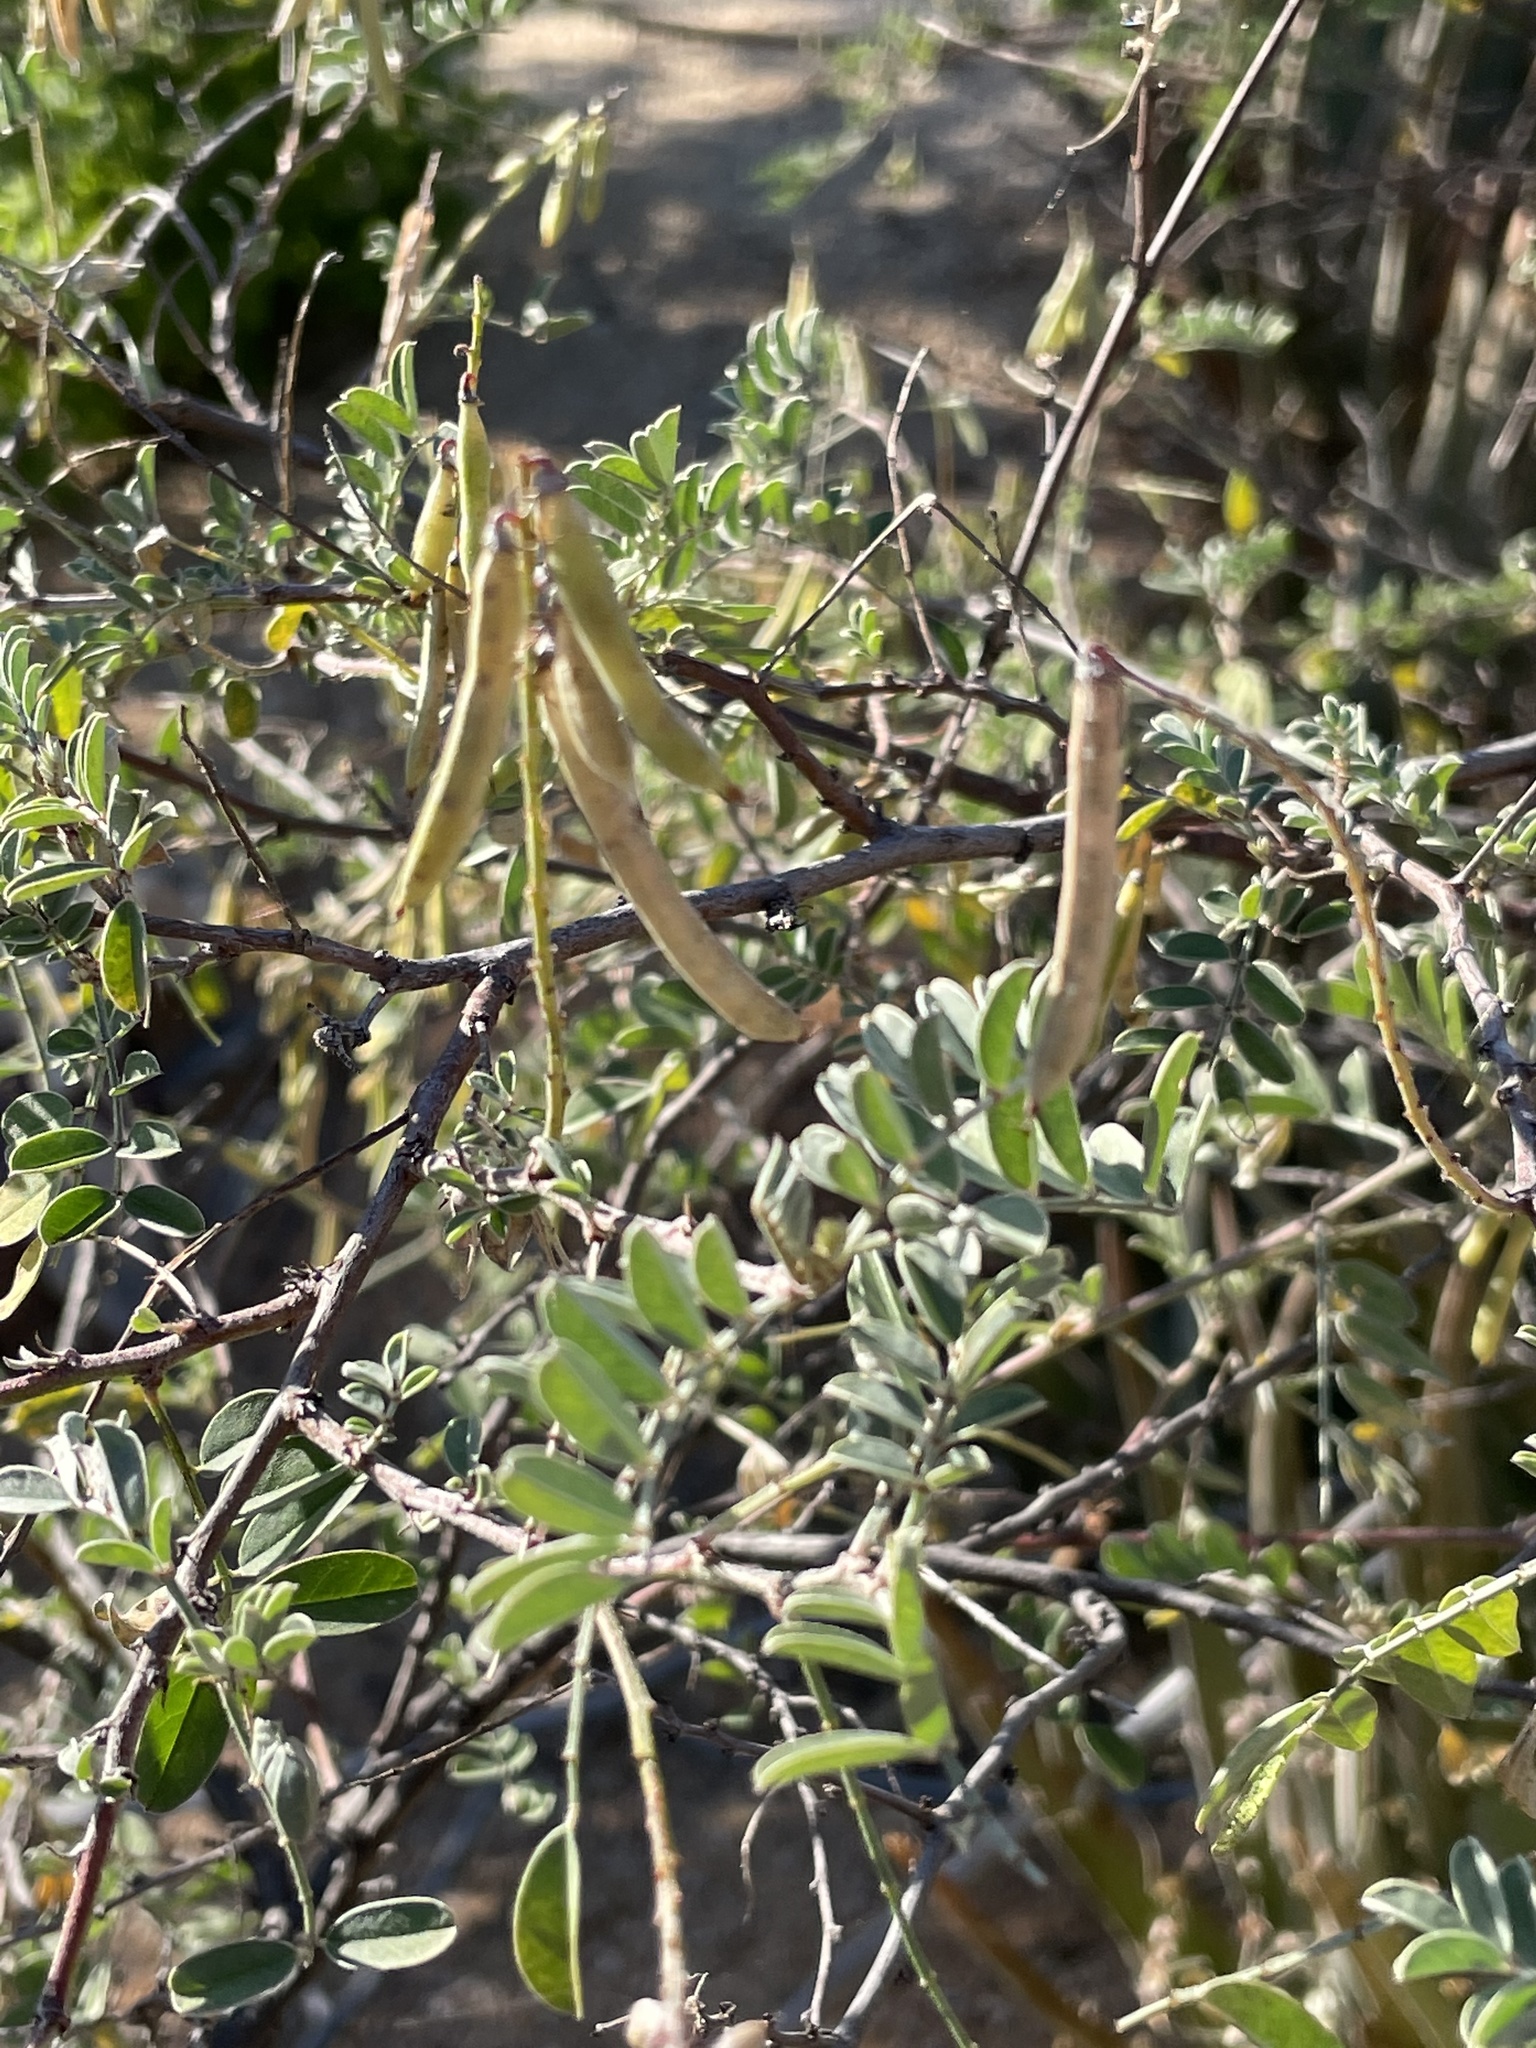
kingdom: Plantae
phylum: Tracheophyta
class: Magnoliopsida
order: Fabales
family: Fabaceae
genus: Indigofera
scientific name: Indigofera fruticosa
